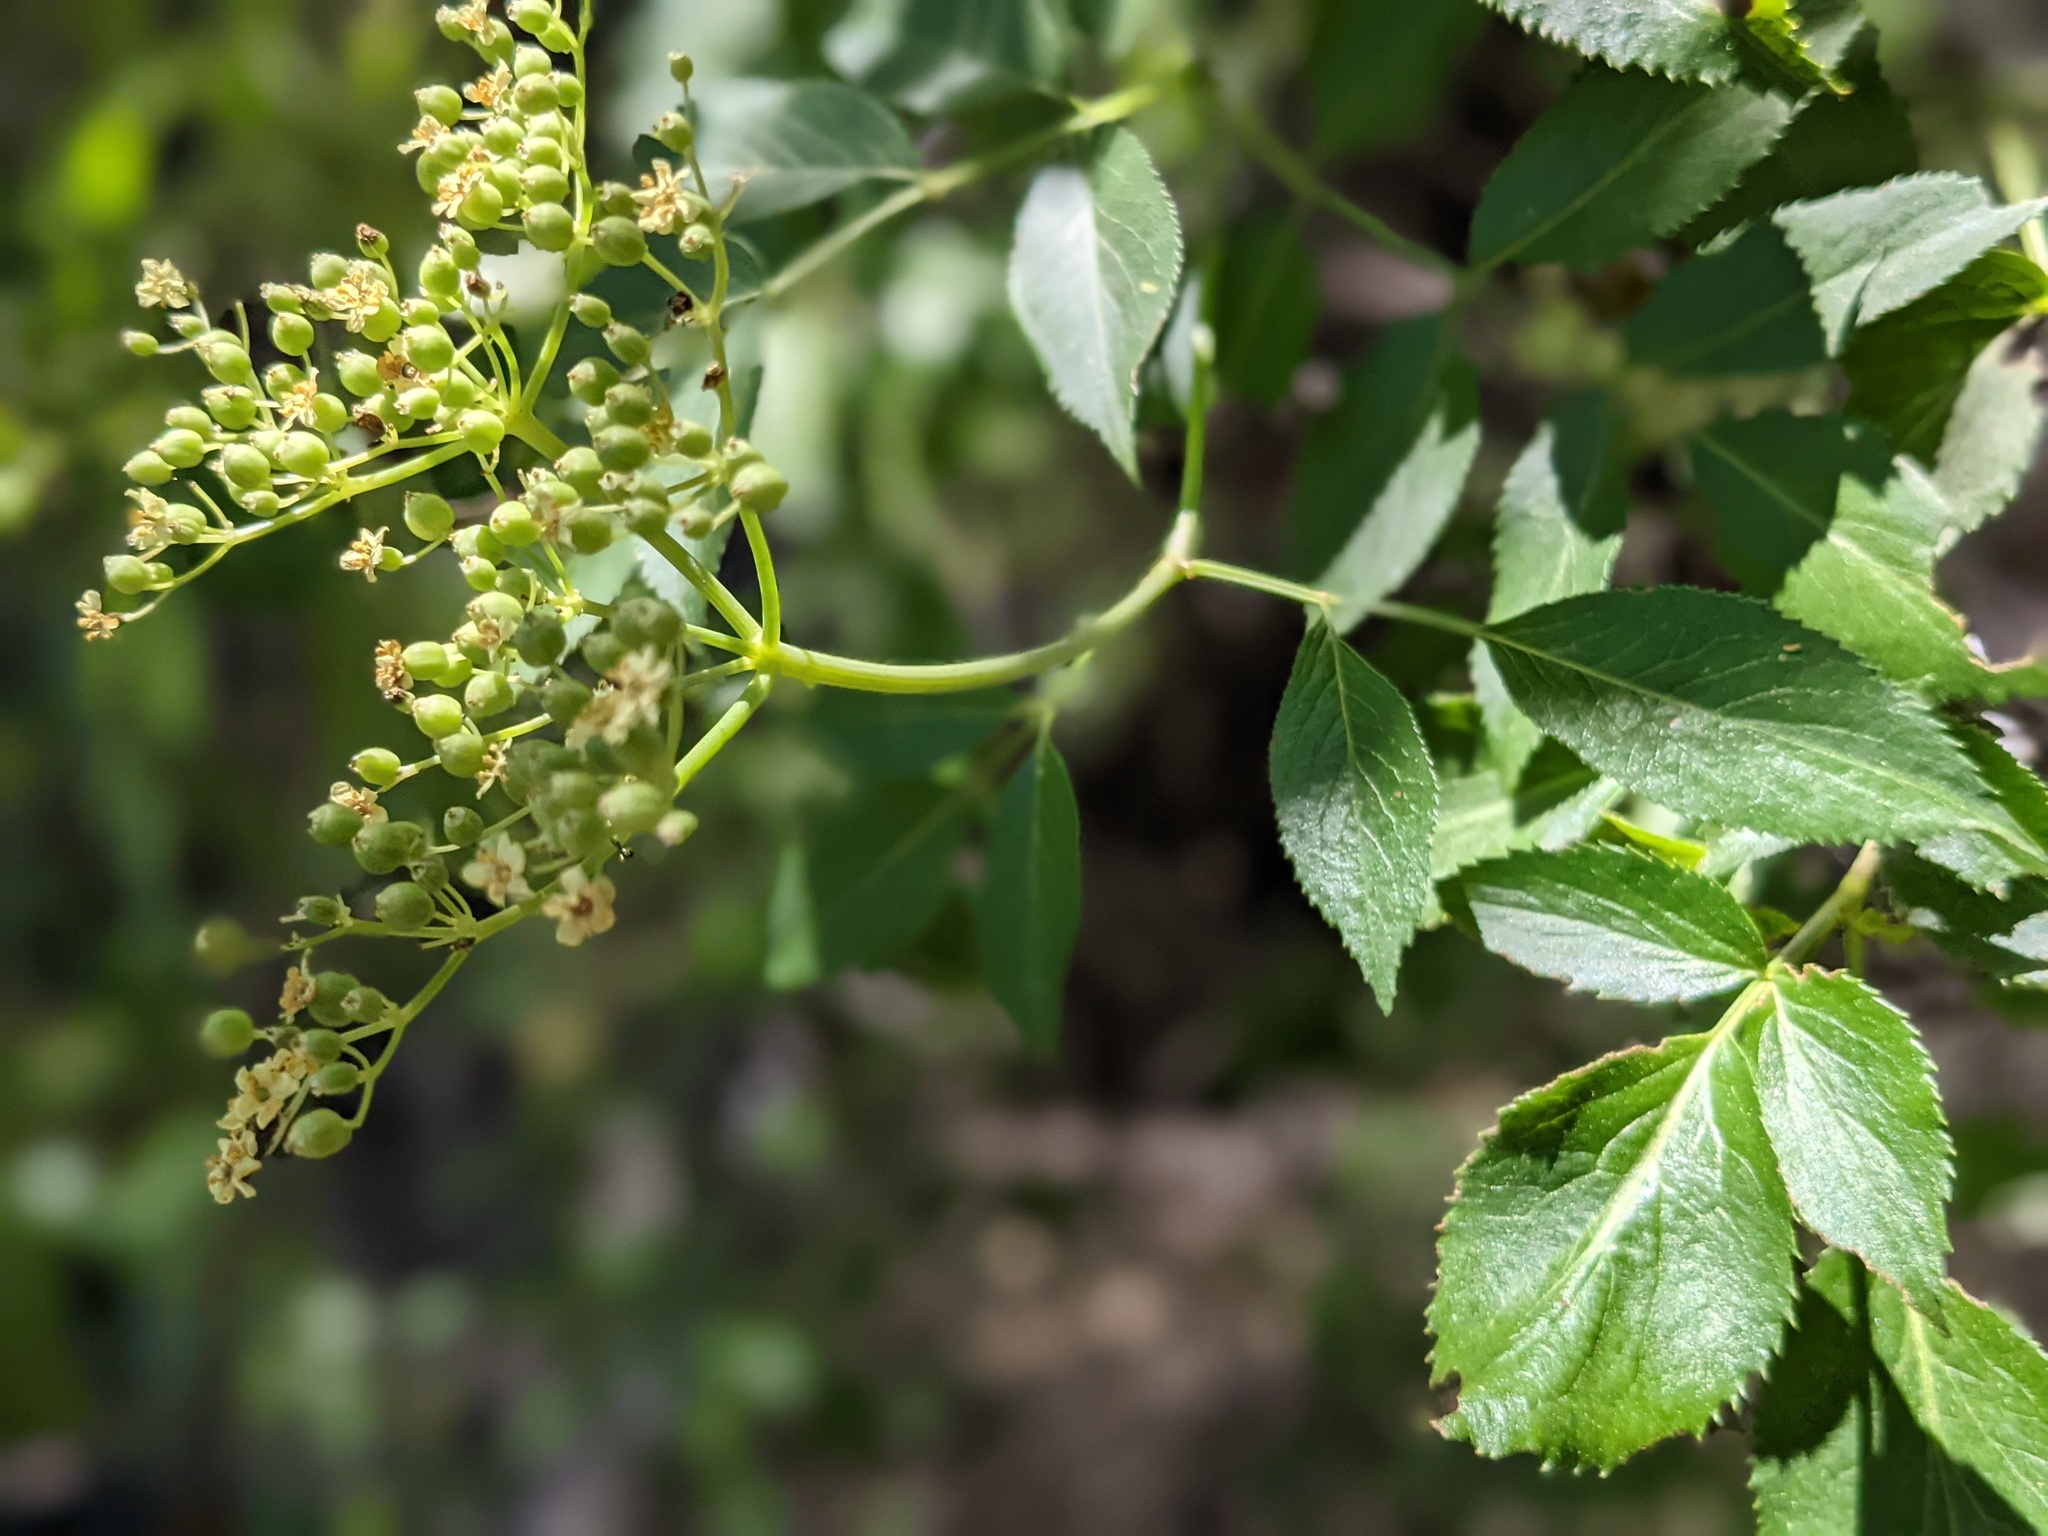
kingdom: Plantae
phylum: Tracheophyta
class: Magnoliopsida
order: Dipsacales
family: Viburnaceae
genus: Sambucus
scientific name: Sambucus cerulea
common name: Blue elder
